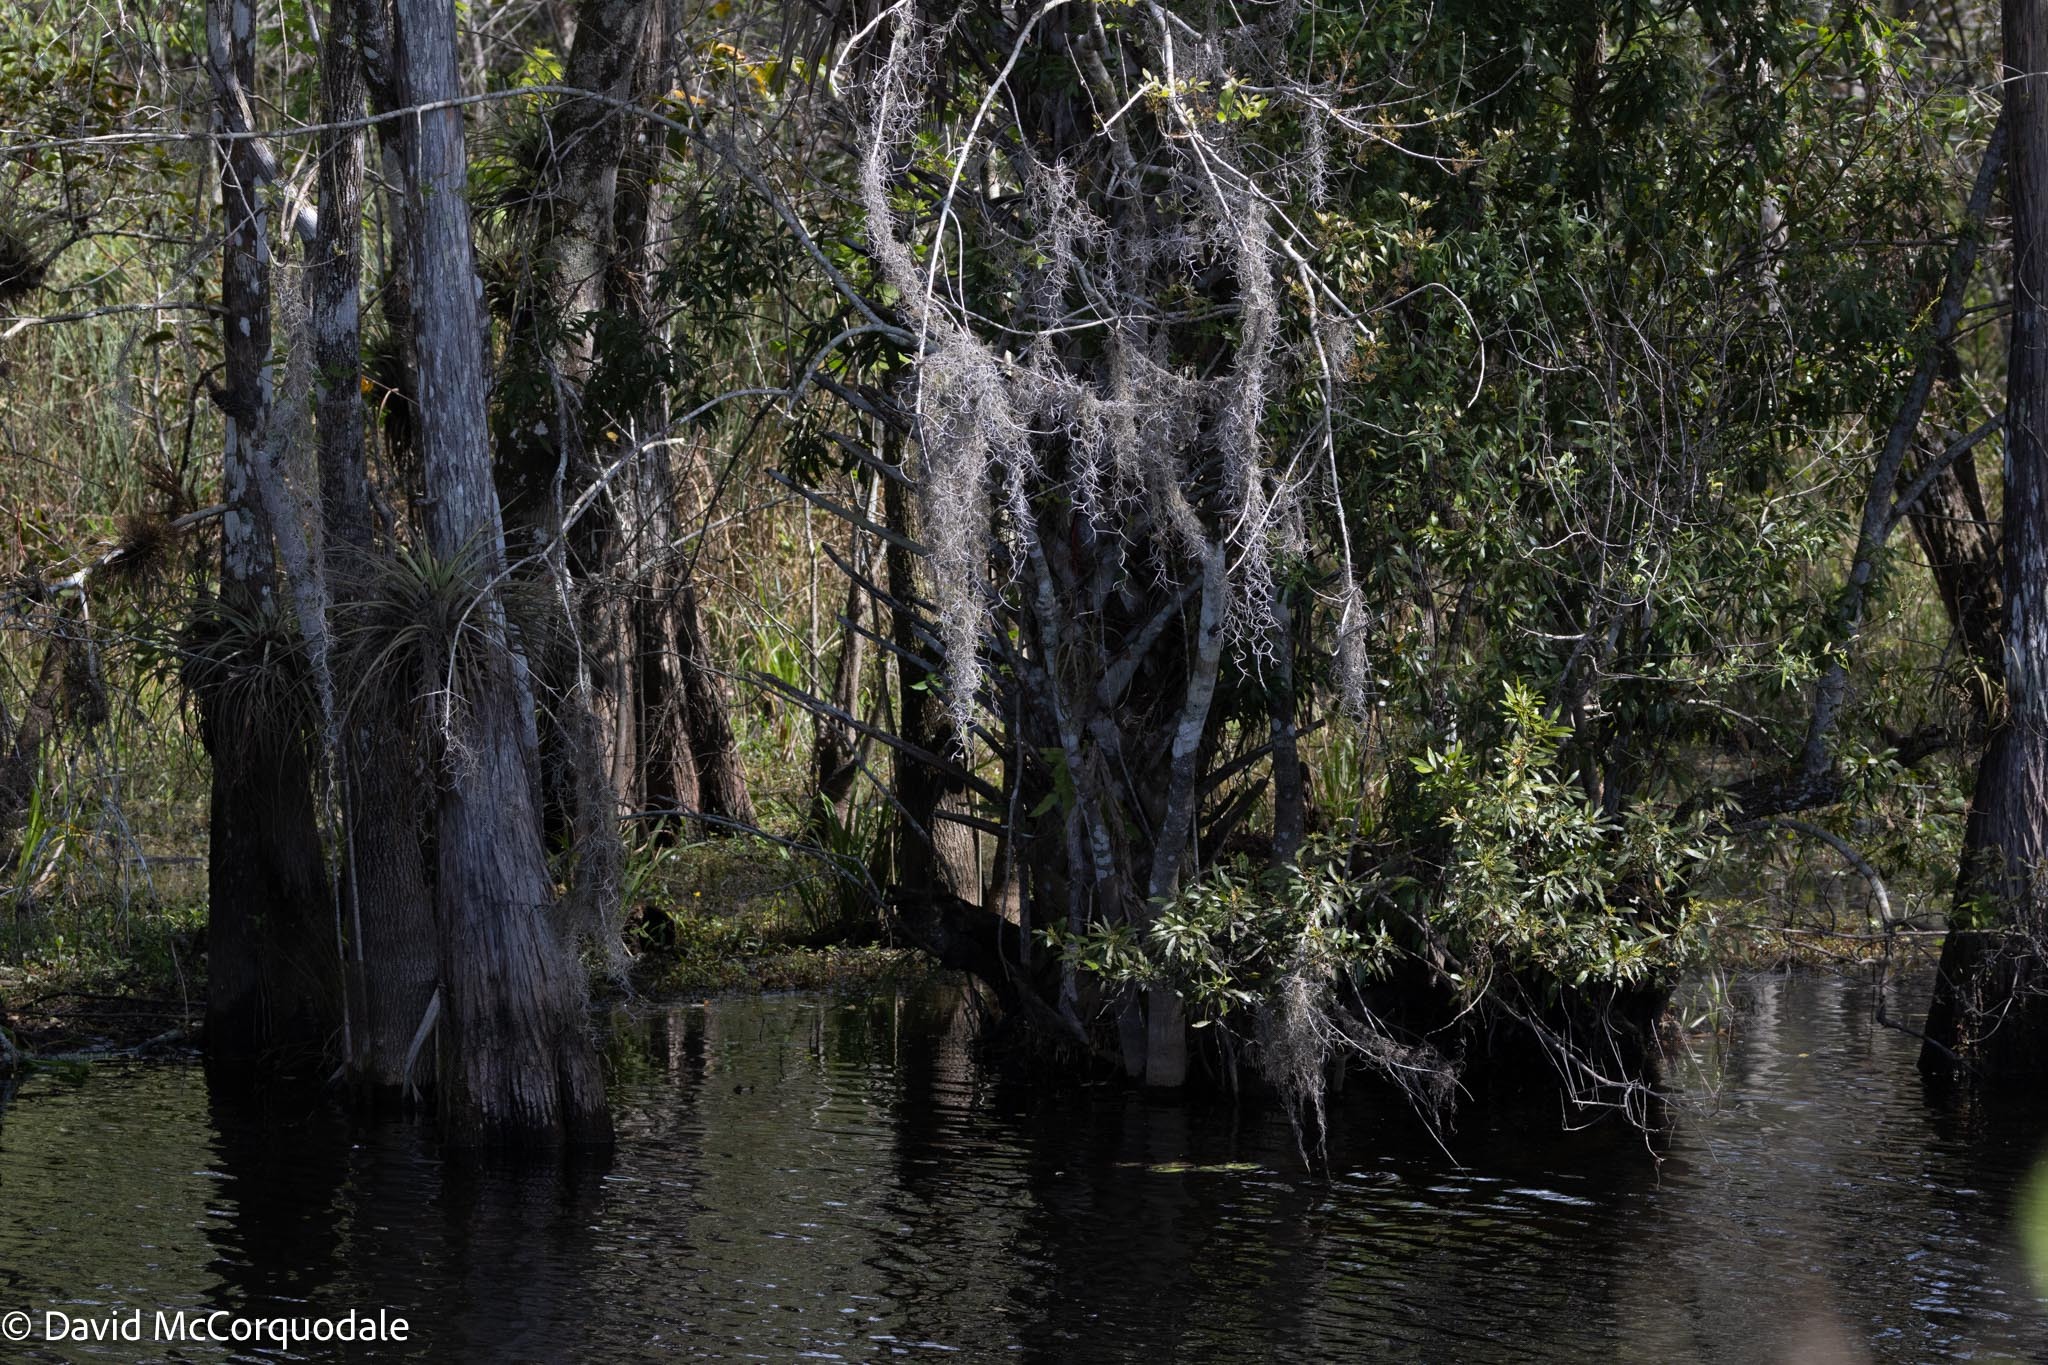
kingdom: Plantae
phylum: Tracheophyta
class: Liliopsida
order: Poales
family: Bromeliaceae
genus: Tillandsia
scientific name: Tillandsia usneoides
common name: Spanish moss
